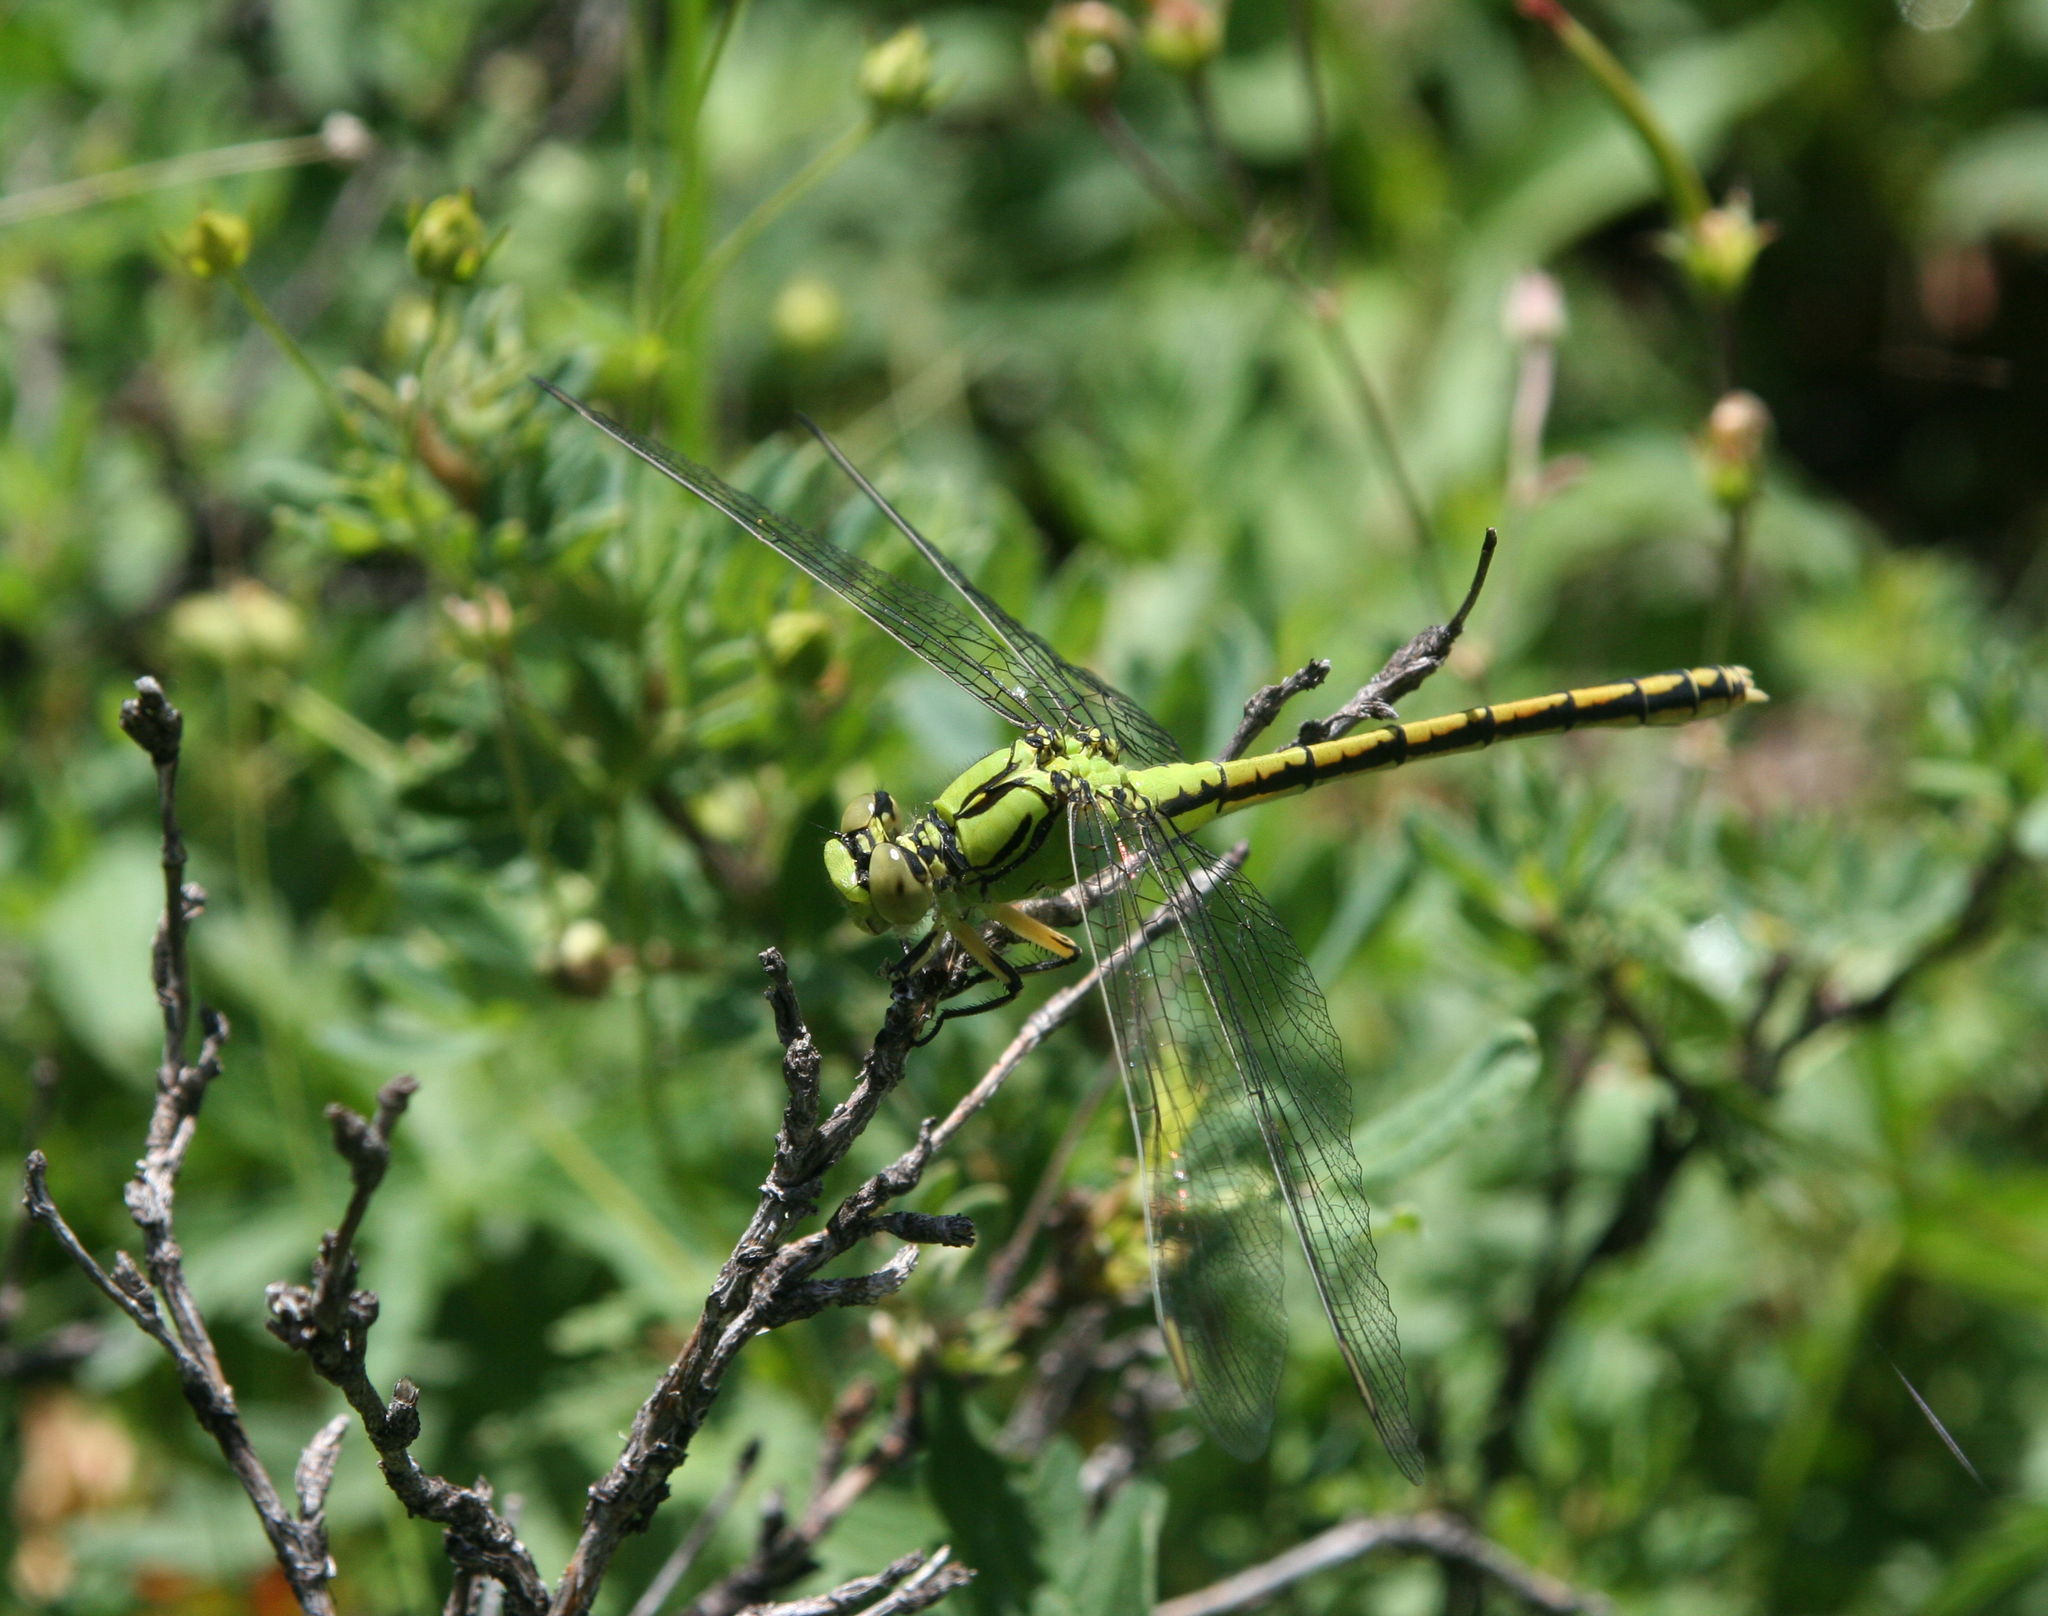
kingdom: Animalia
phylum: Arthropoda
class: Insecta
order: Odonata
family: Gomphidae
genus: Ophiogomphus
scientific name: Ophiogomphus spinicornis
